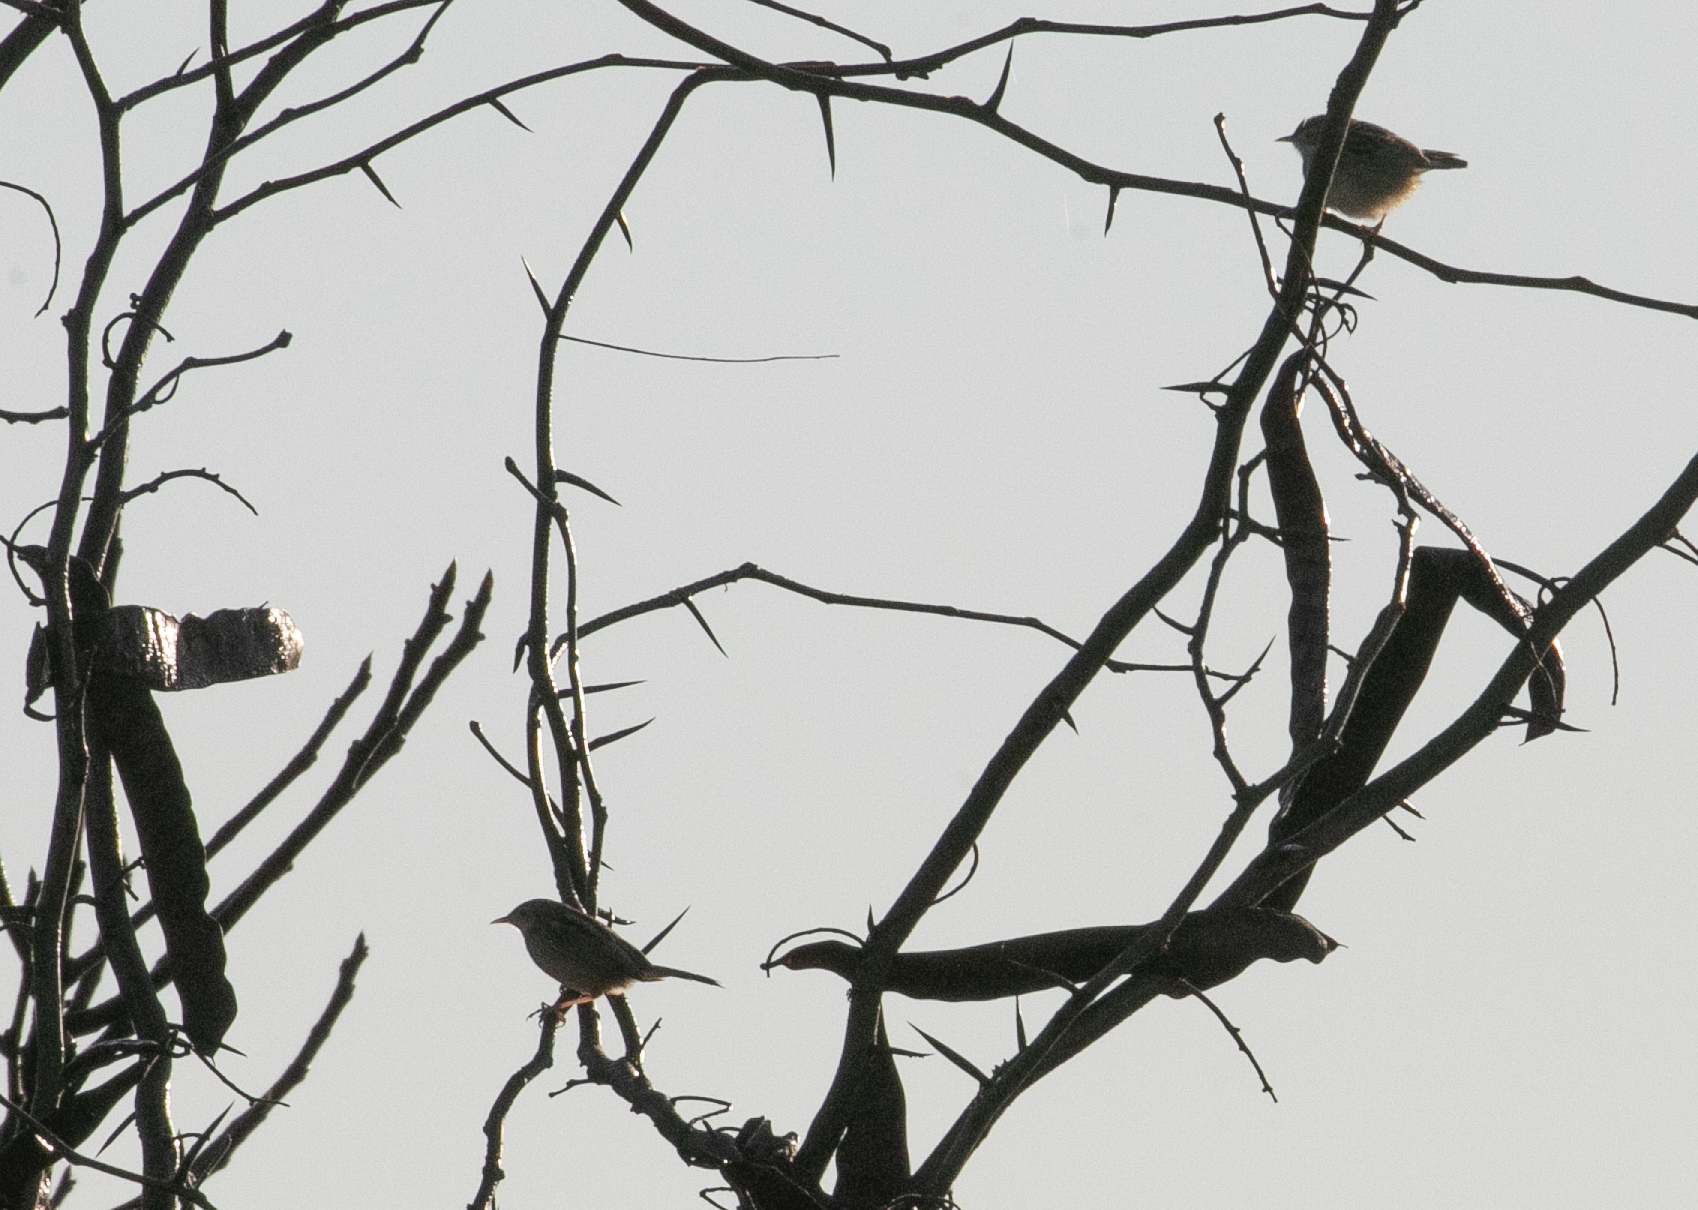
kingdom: Animalia
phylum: Chordata
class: Aves
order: Passeriformes
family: Cisticolidae
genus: Cisticola
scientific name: Cisticola juncidis
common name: Zitting cisticola
